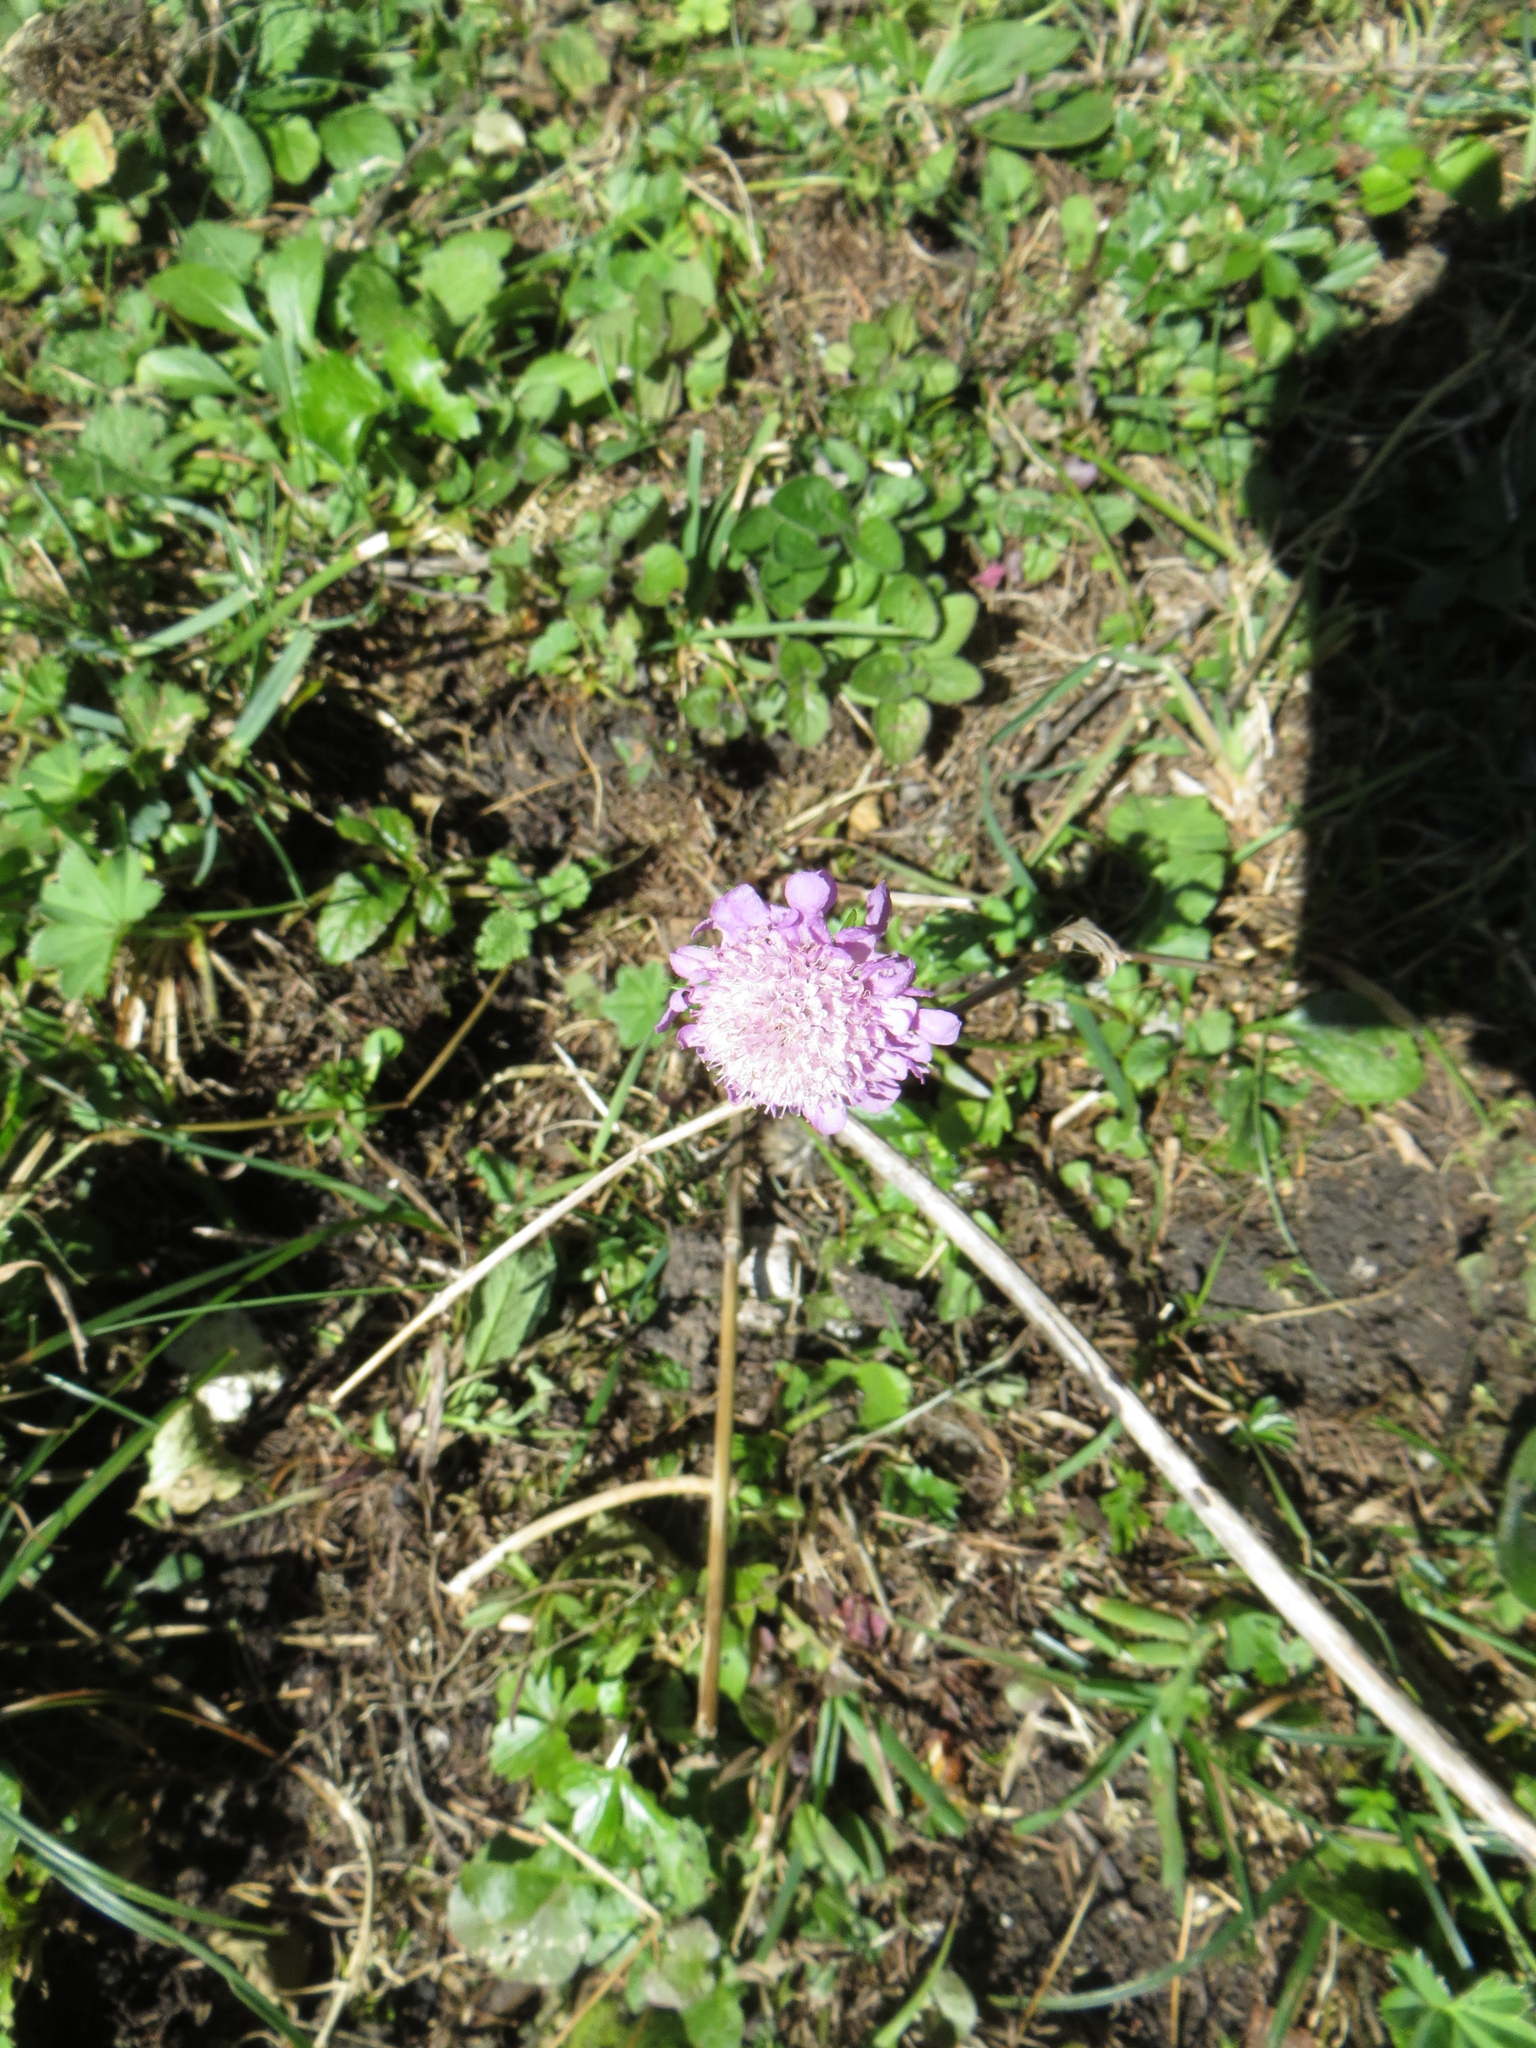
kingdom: Plantae
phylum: Tracheophyta
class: Magnoliopsida
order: Dipsacales
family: Caprifoliaceae
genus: Knautia
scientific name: Knautia arvensis
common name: Field scabiosa
